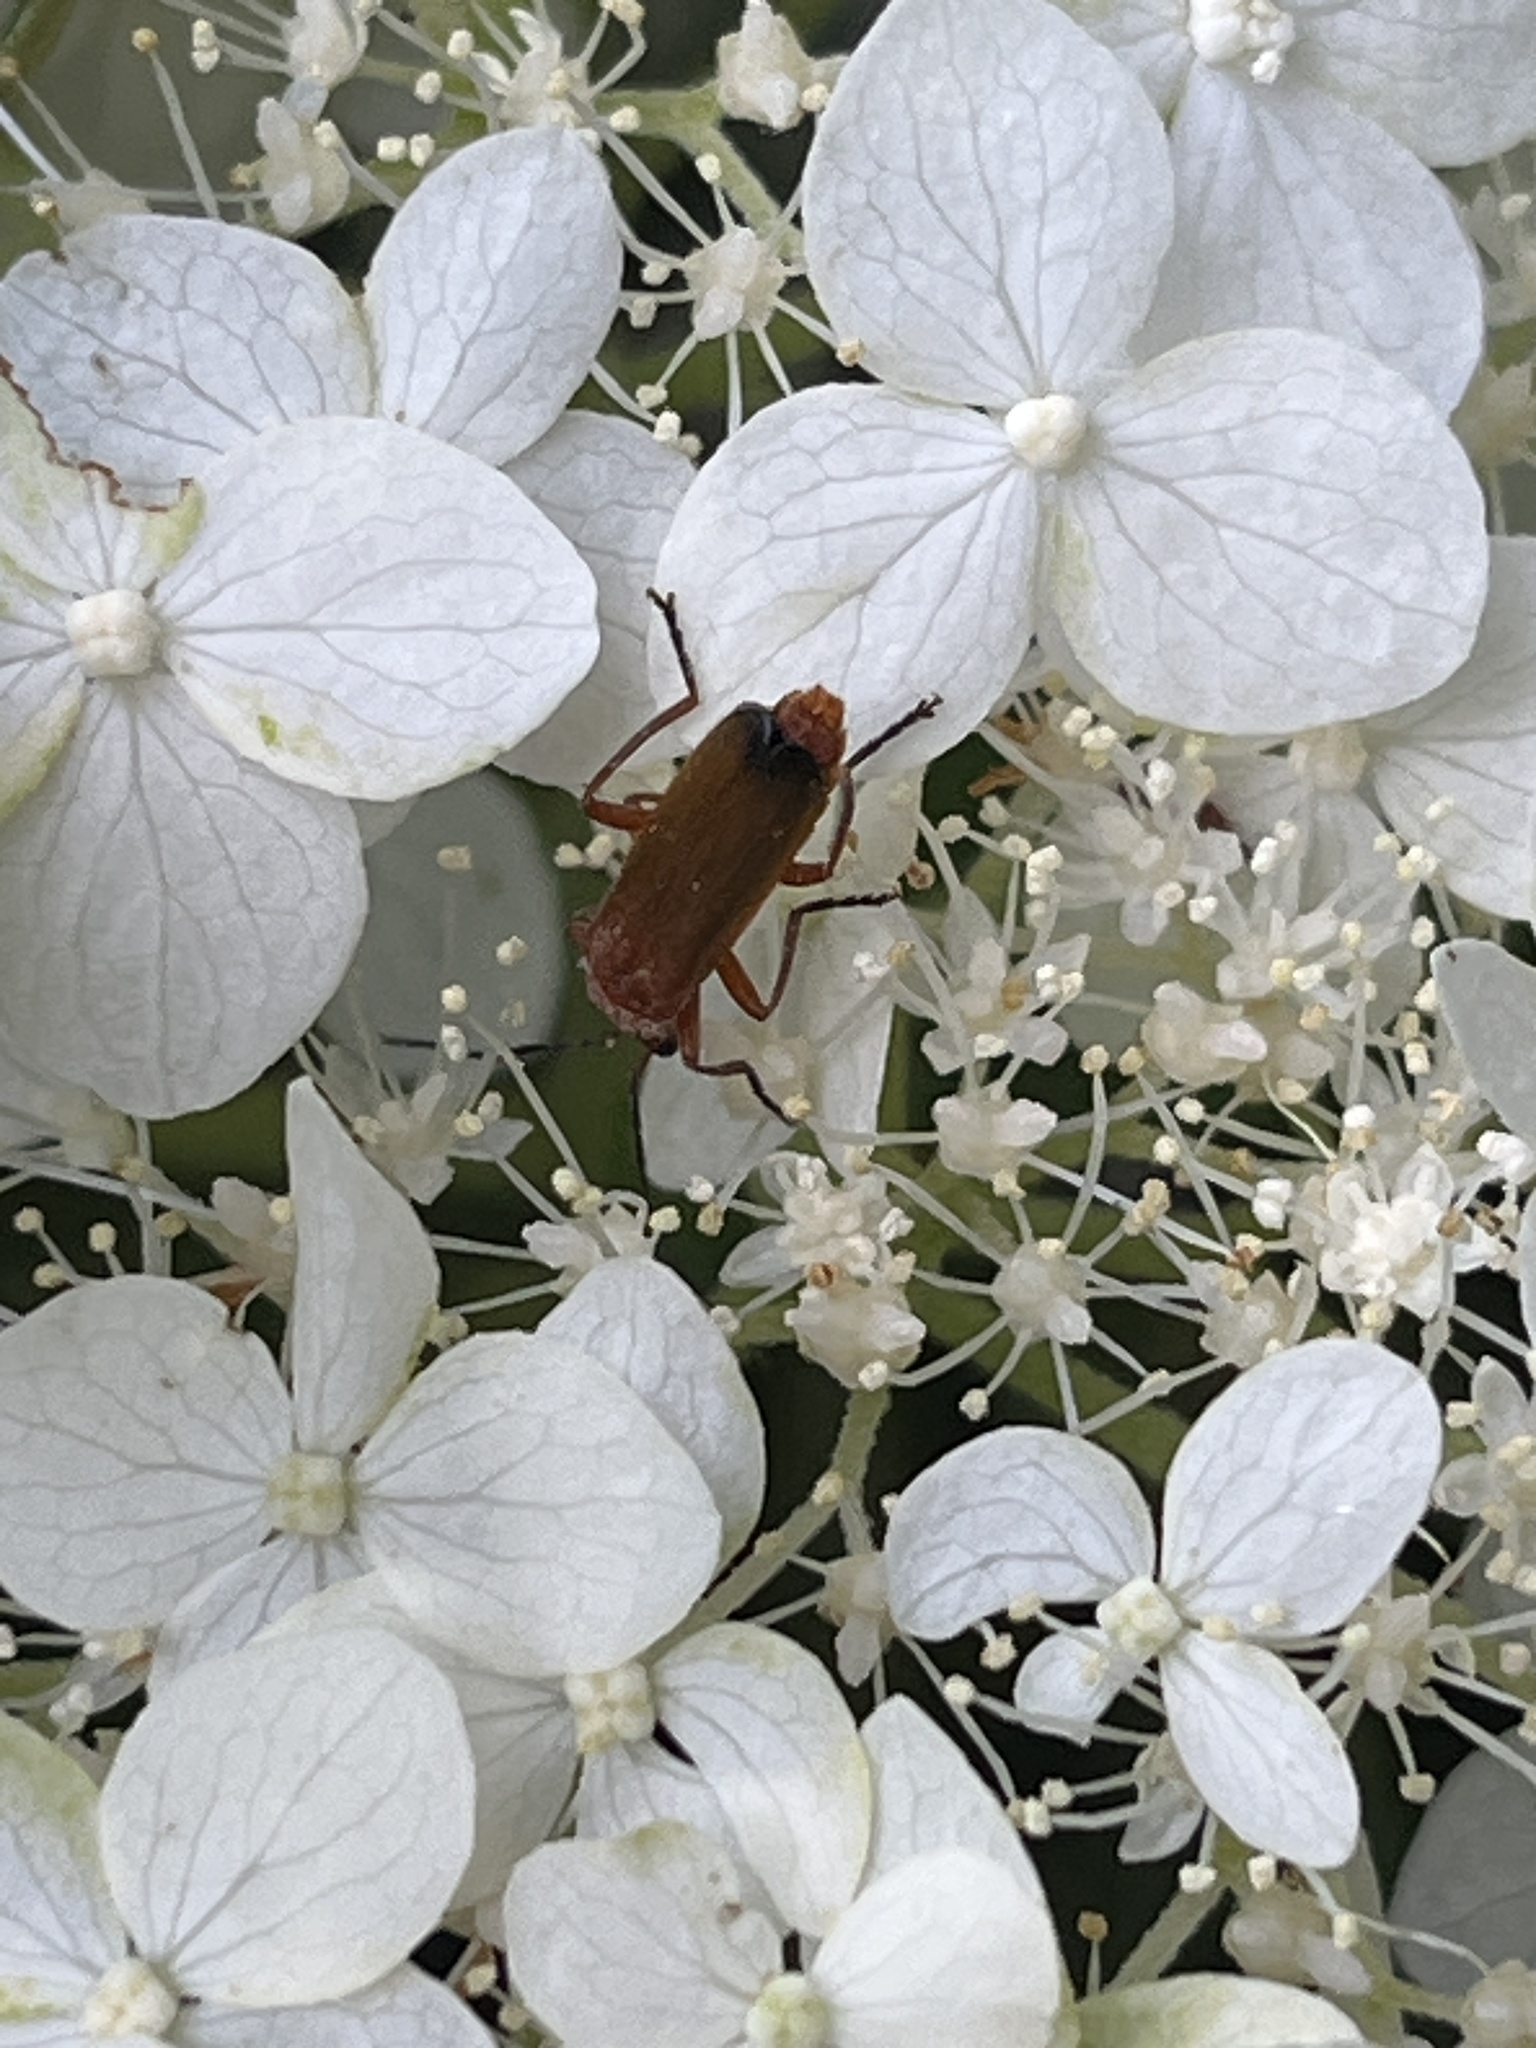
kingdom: Animalia
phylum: Arthropoda
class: Insecta
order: Coleoptera
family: Cantharidae
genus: Rhagonycha
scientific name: Rhagonycha fulva
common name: Common red soldier beetle
